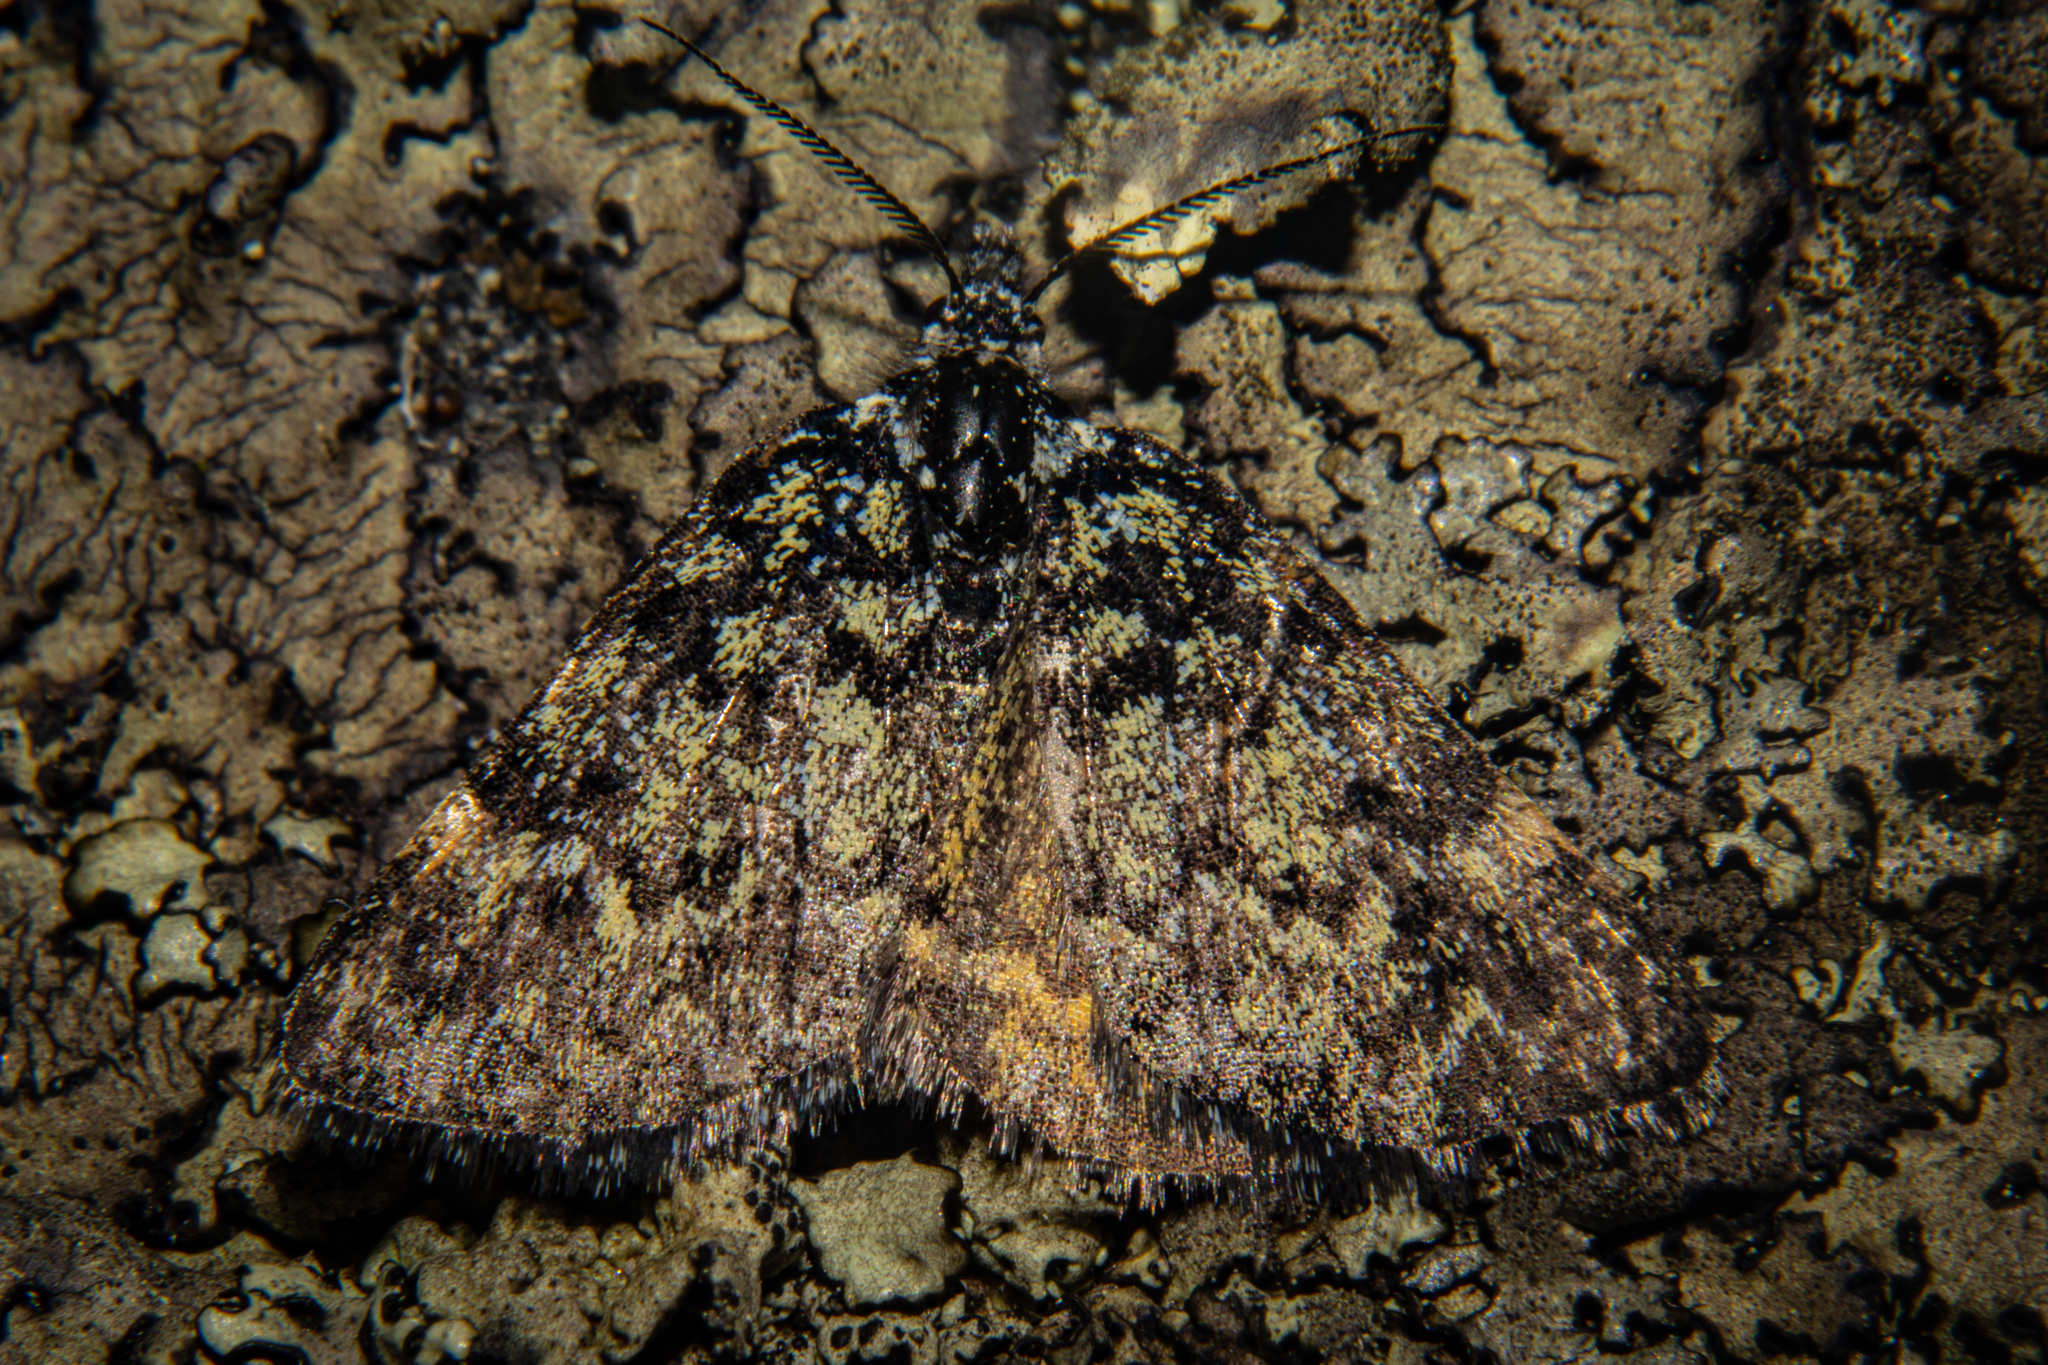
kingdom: Animalia
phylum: Arthropoda
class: Insecta
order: Lepidoptera
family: Geometridae
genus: Dichromodes
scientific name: Dichromodes ida
